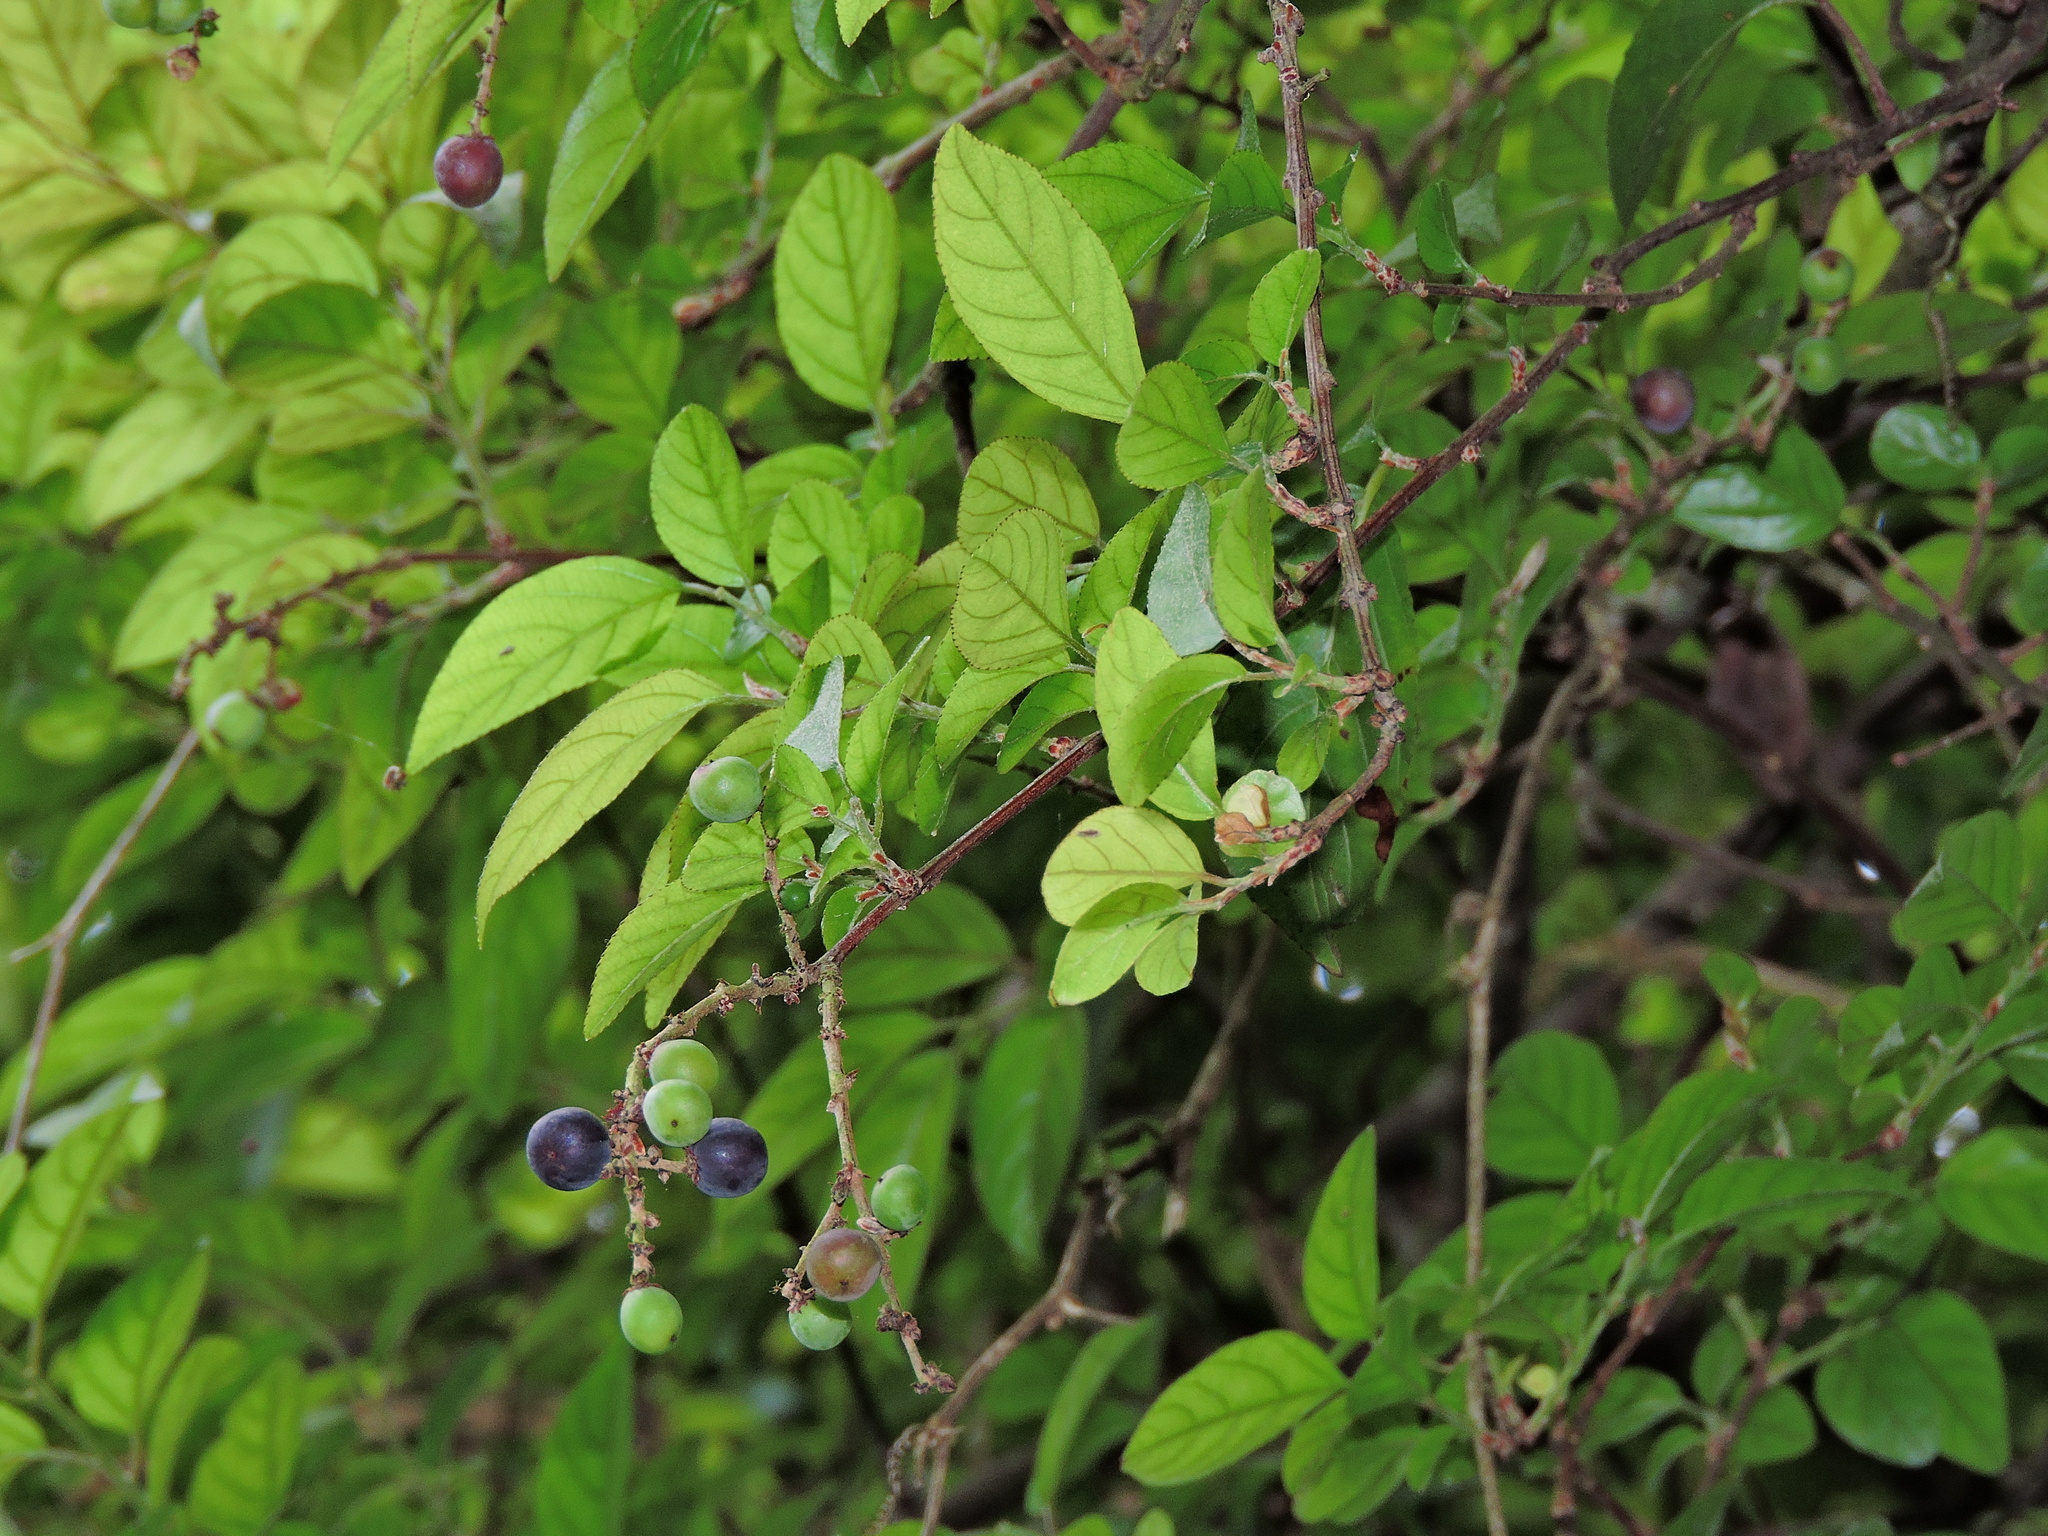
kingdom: Plantae
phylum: Tracheophyta
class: Magnoliopsida
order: Rosales
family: Rhamnaceae
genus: Sageretia
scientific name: Sageretia thea
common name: Pauper's-tea
